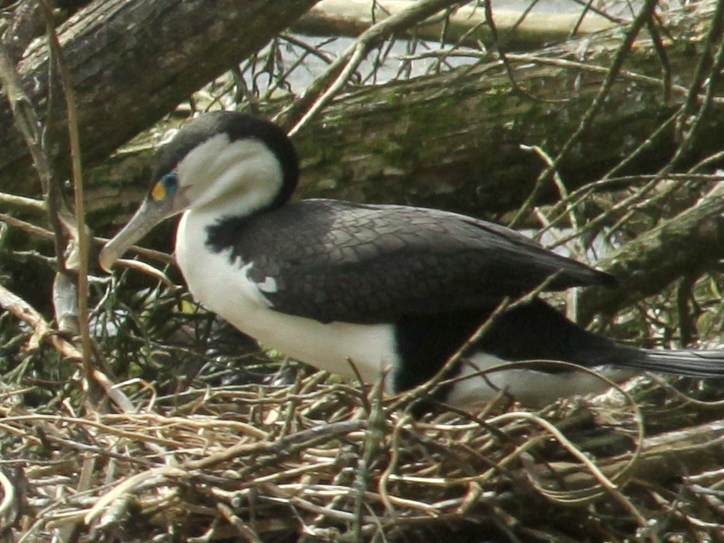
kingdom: Animalia
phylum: Chordata
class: Aves
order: Suliformes
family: Phalacrocoracidae
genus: Phalacrocorax
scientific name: Phalacrocorax varius
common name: Pied cormorant
